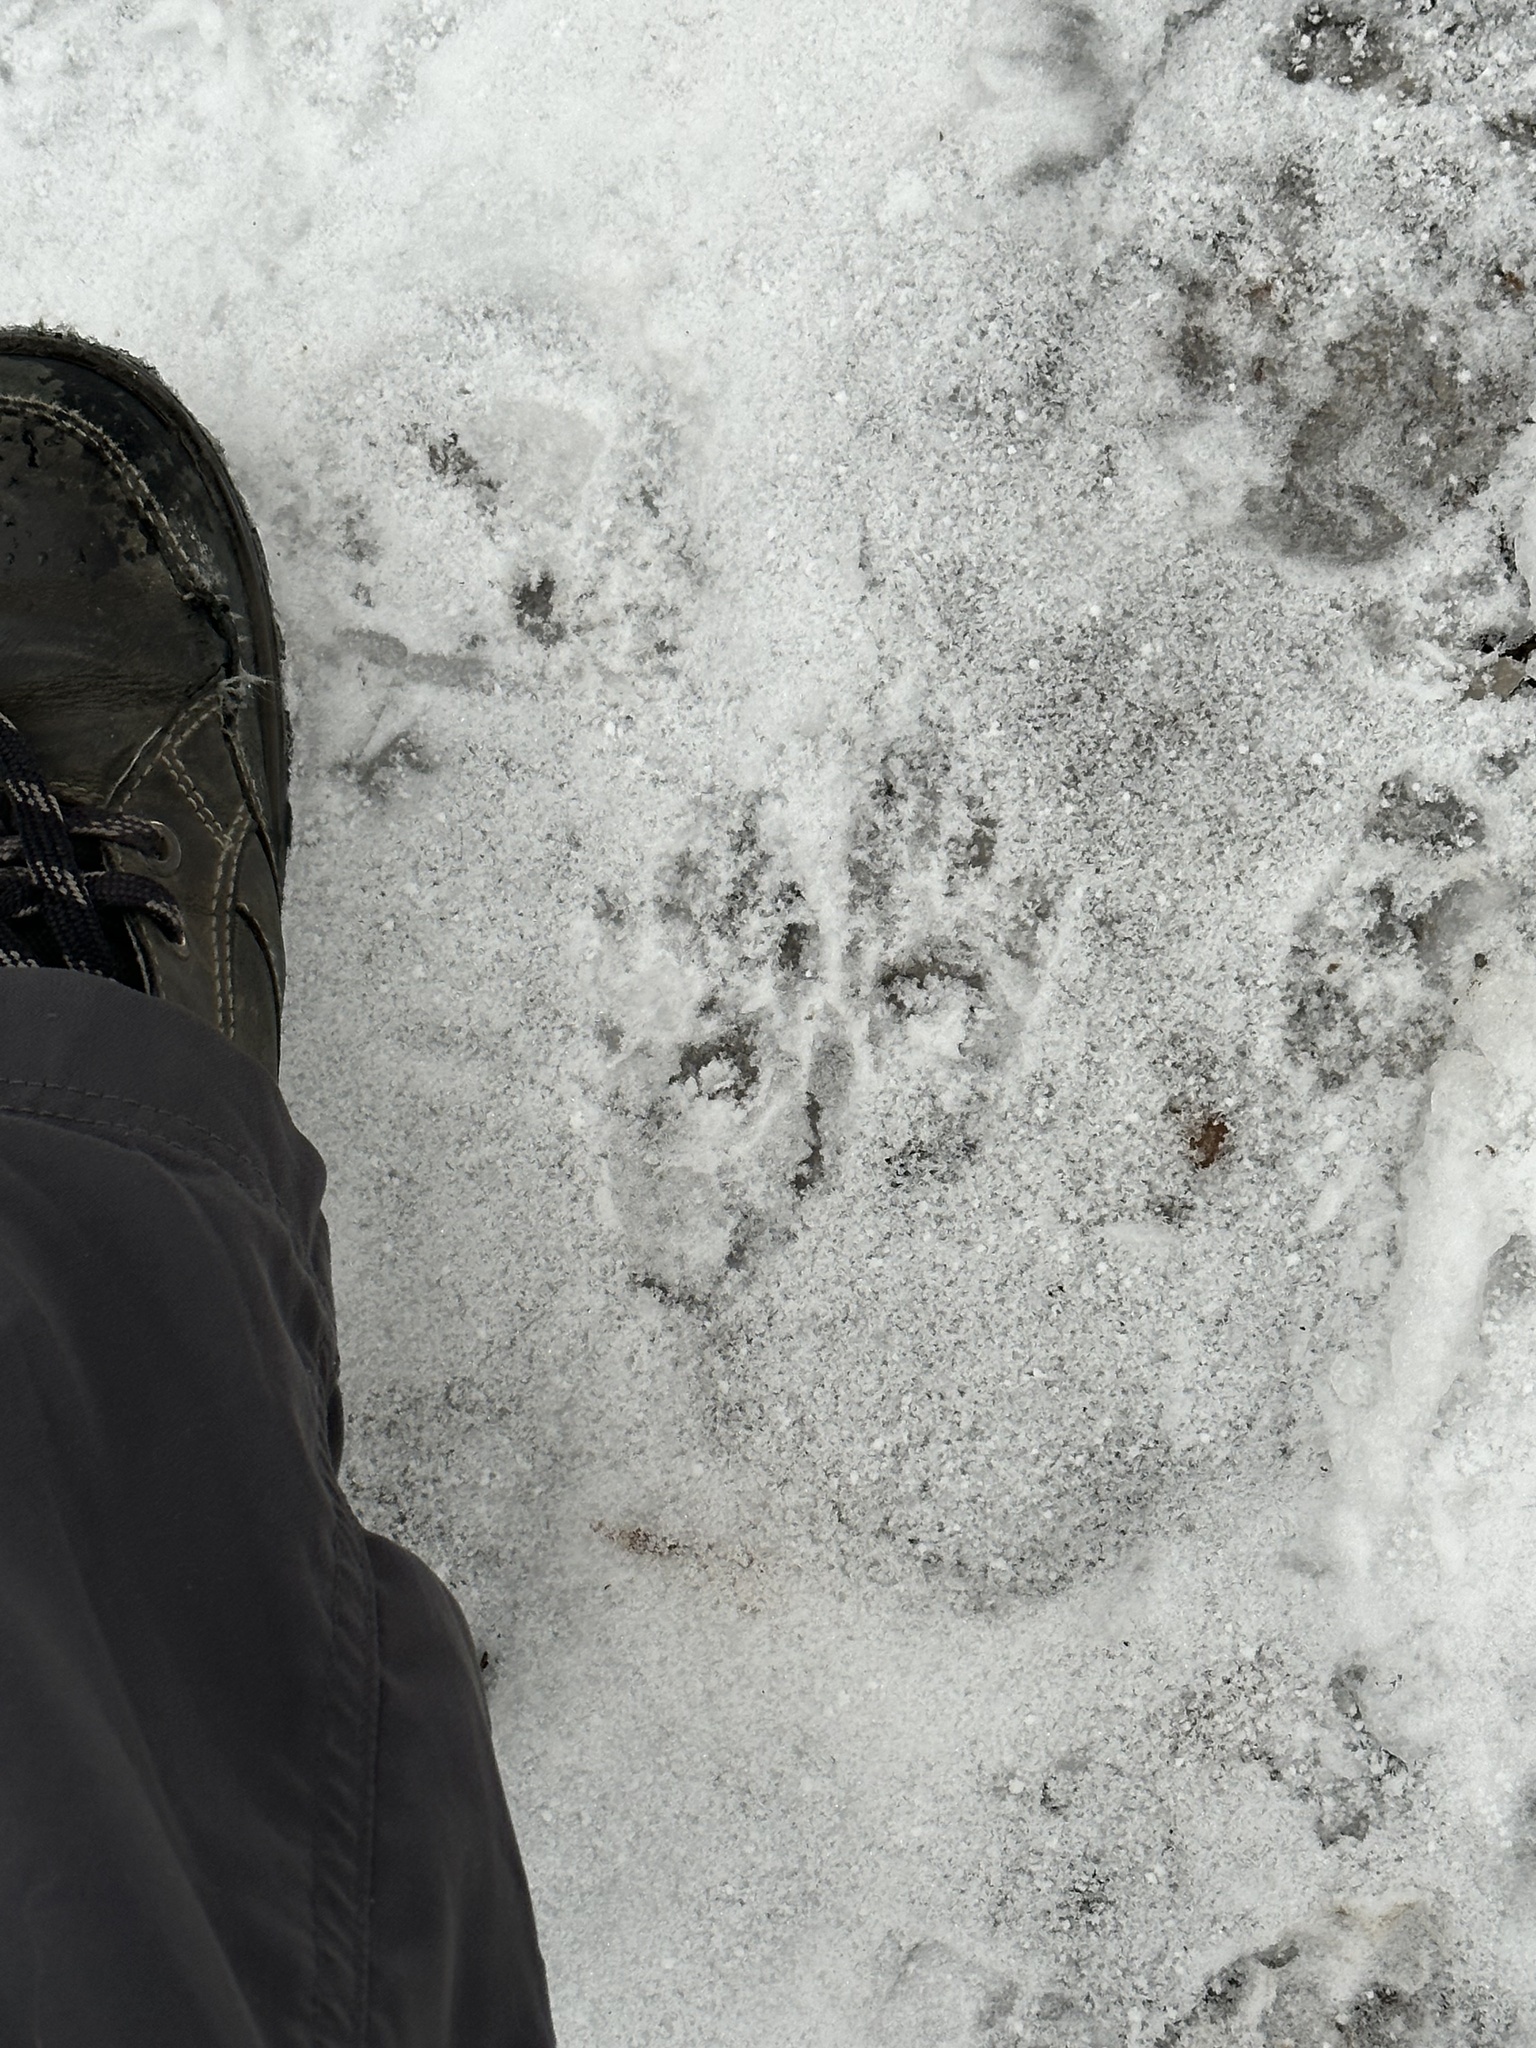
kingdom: Animalia
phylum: Chordata
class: Mammalia
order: Carnivora
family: Procyonidae
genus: Procyon
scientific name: Procyon lotor
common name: Raccoon
